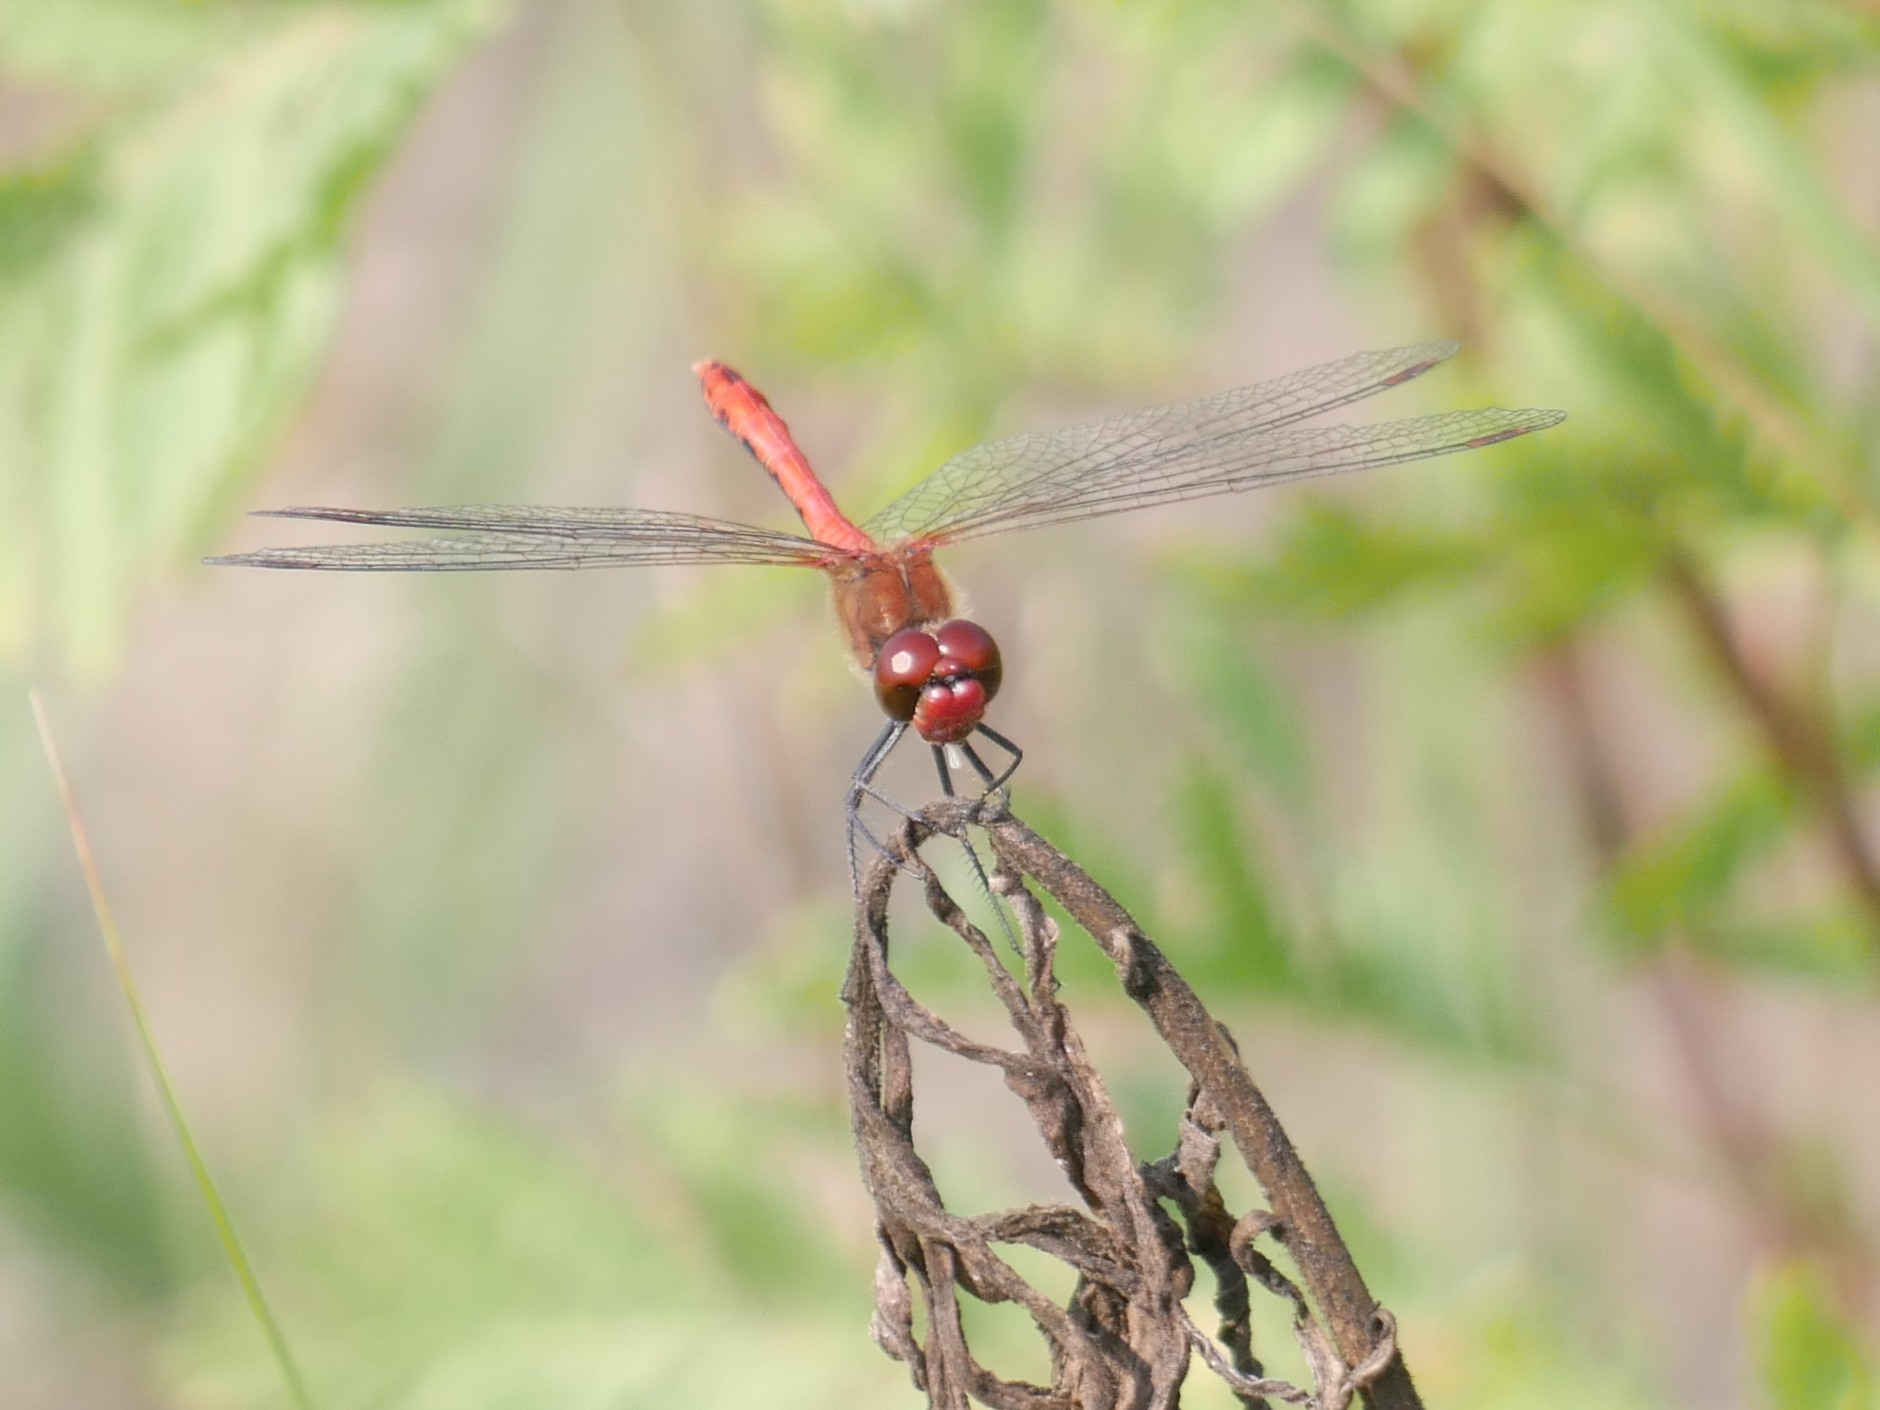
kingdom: Animalia
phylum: Arthropoda
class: Insecta
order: Odonata
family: Libellulidae
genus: Sympetrum
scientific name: Sympetrum sanguineum
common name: Ruddy darter
